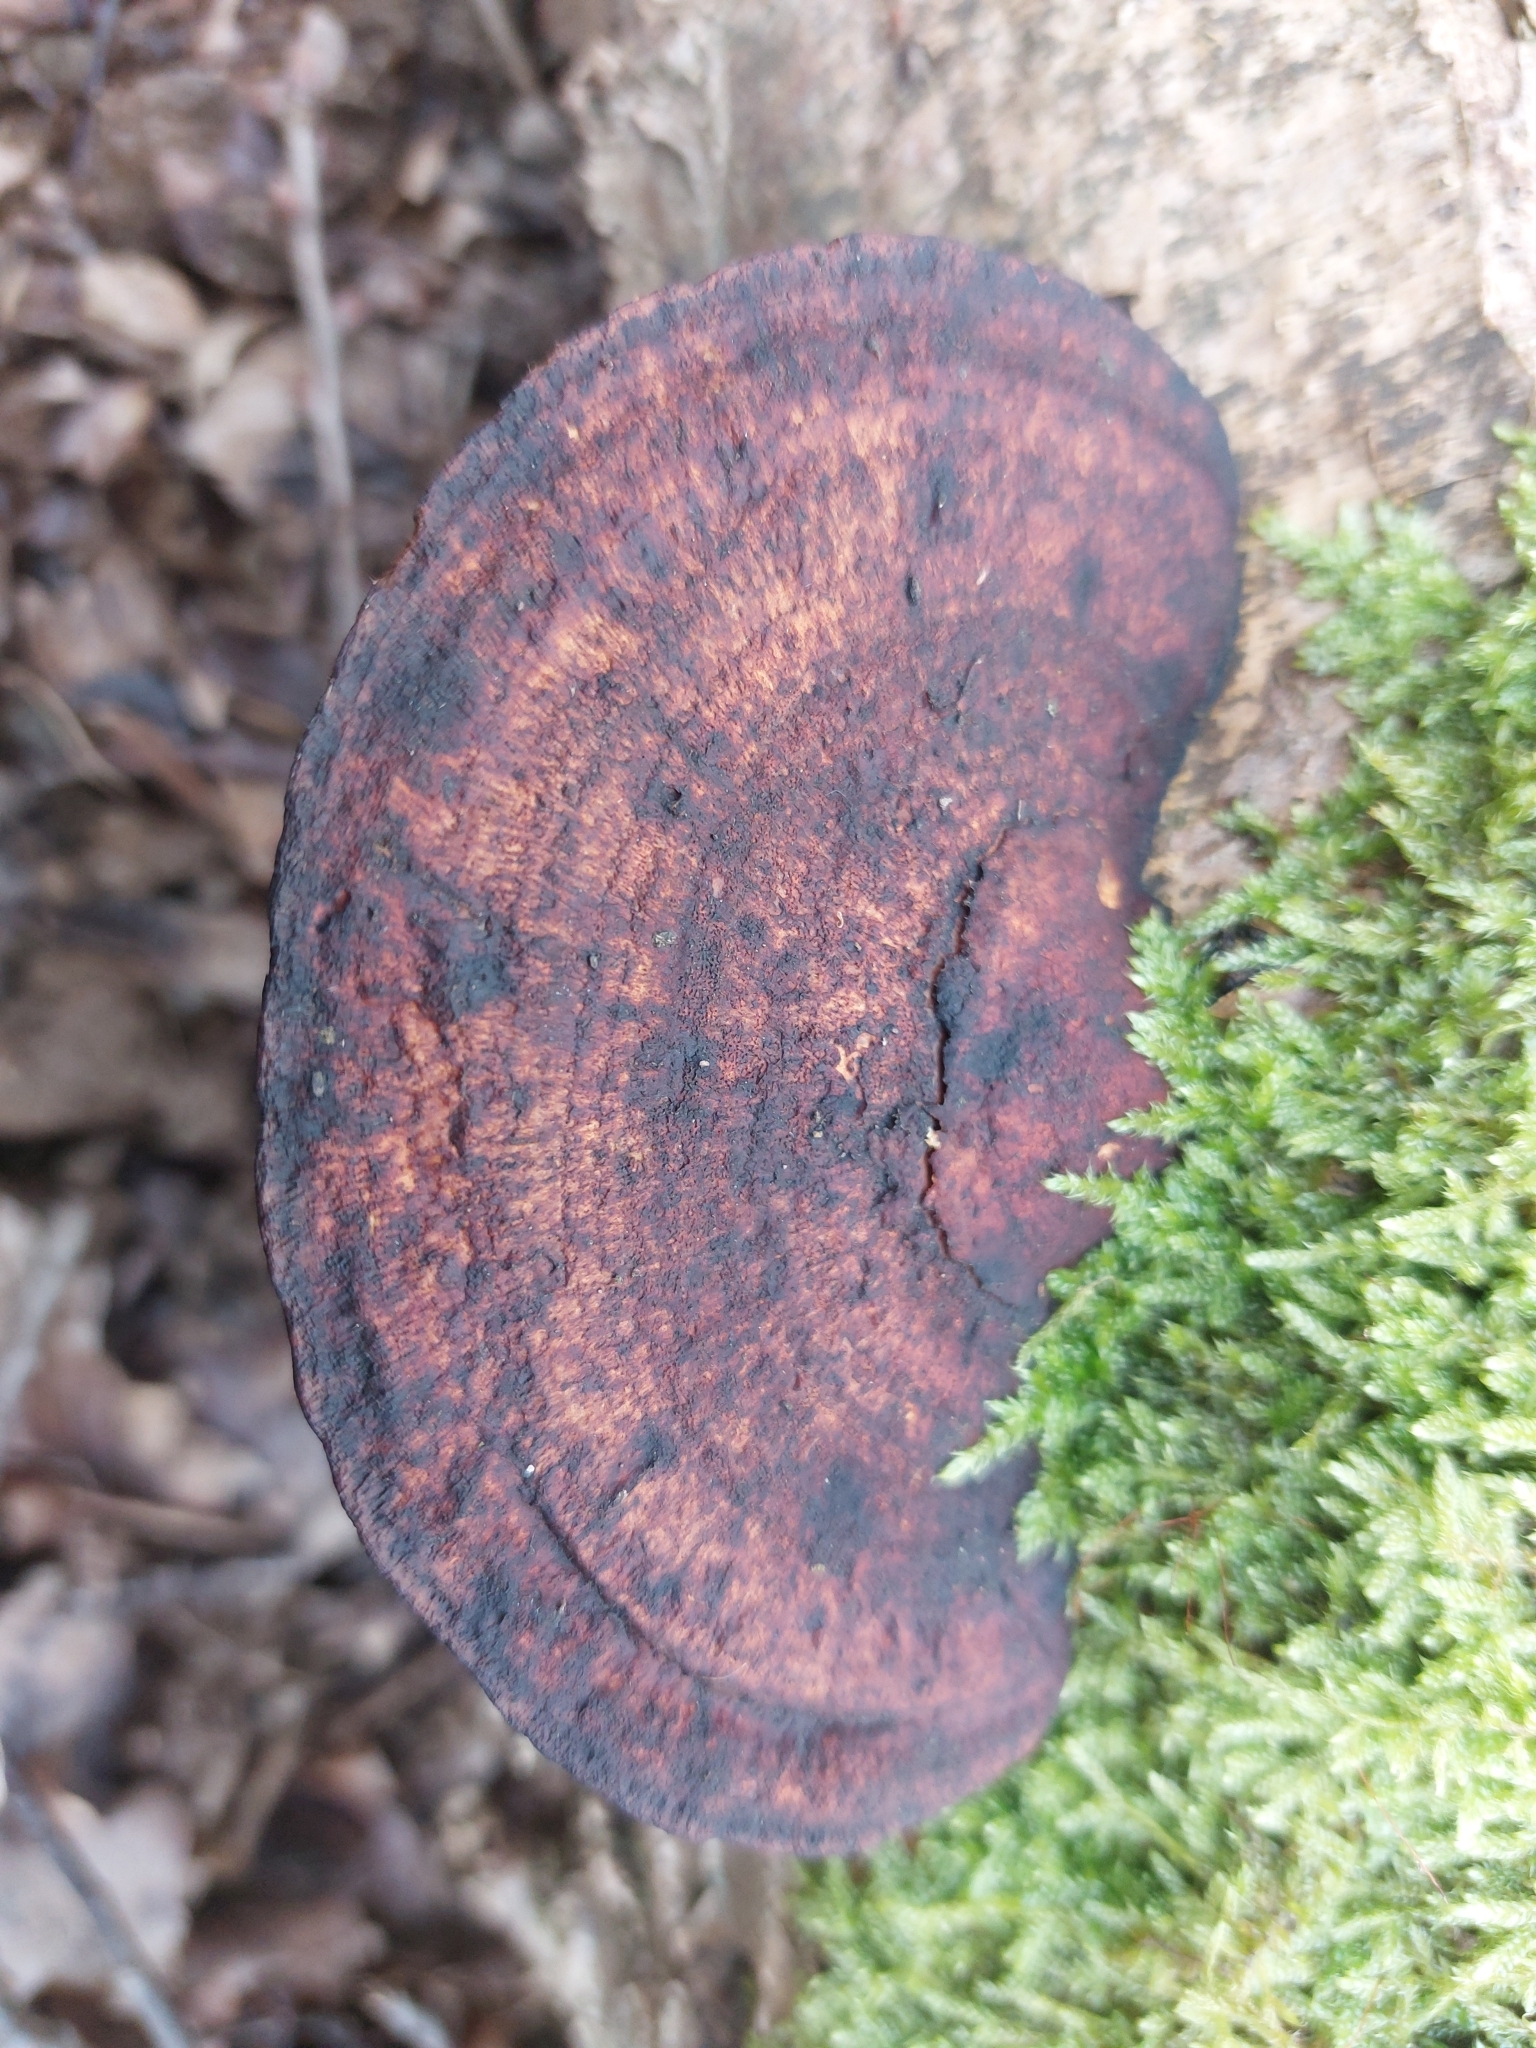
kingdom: Fungi
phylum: Basidiomycota
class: Agaricomycetes
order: Polyporales
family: Polyporaceae
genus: Daedaleopsis
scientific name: Daedaleopsis confragosa
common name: Blushing bracket
